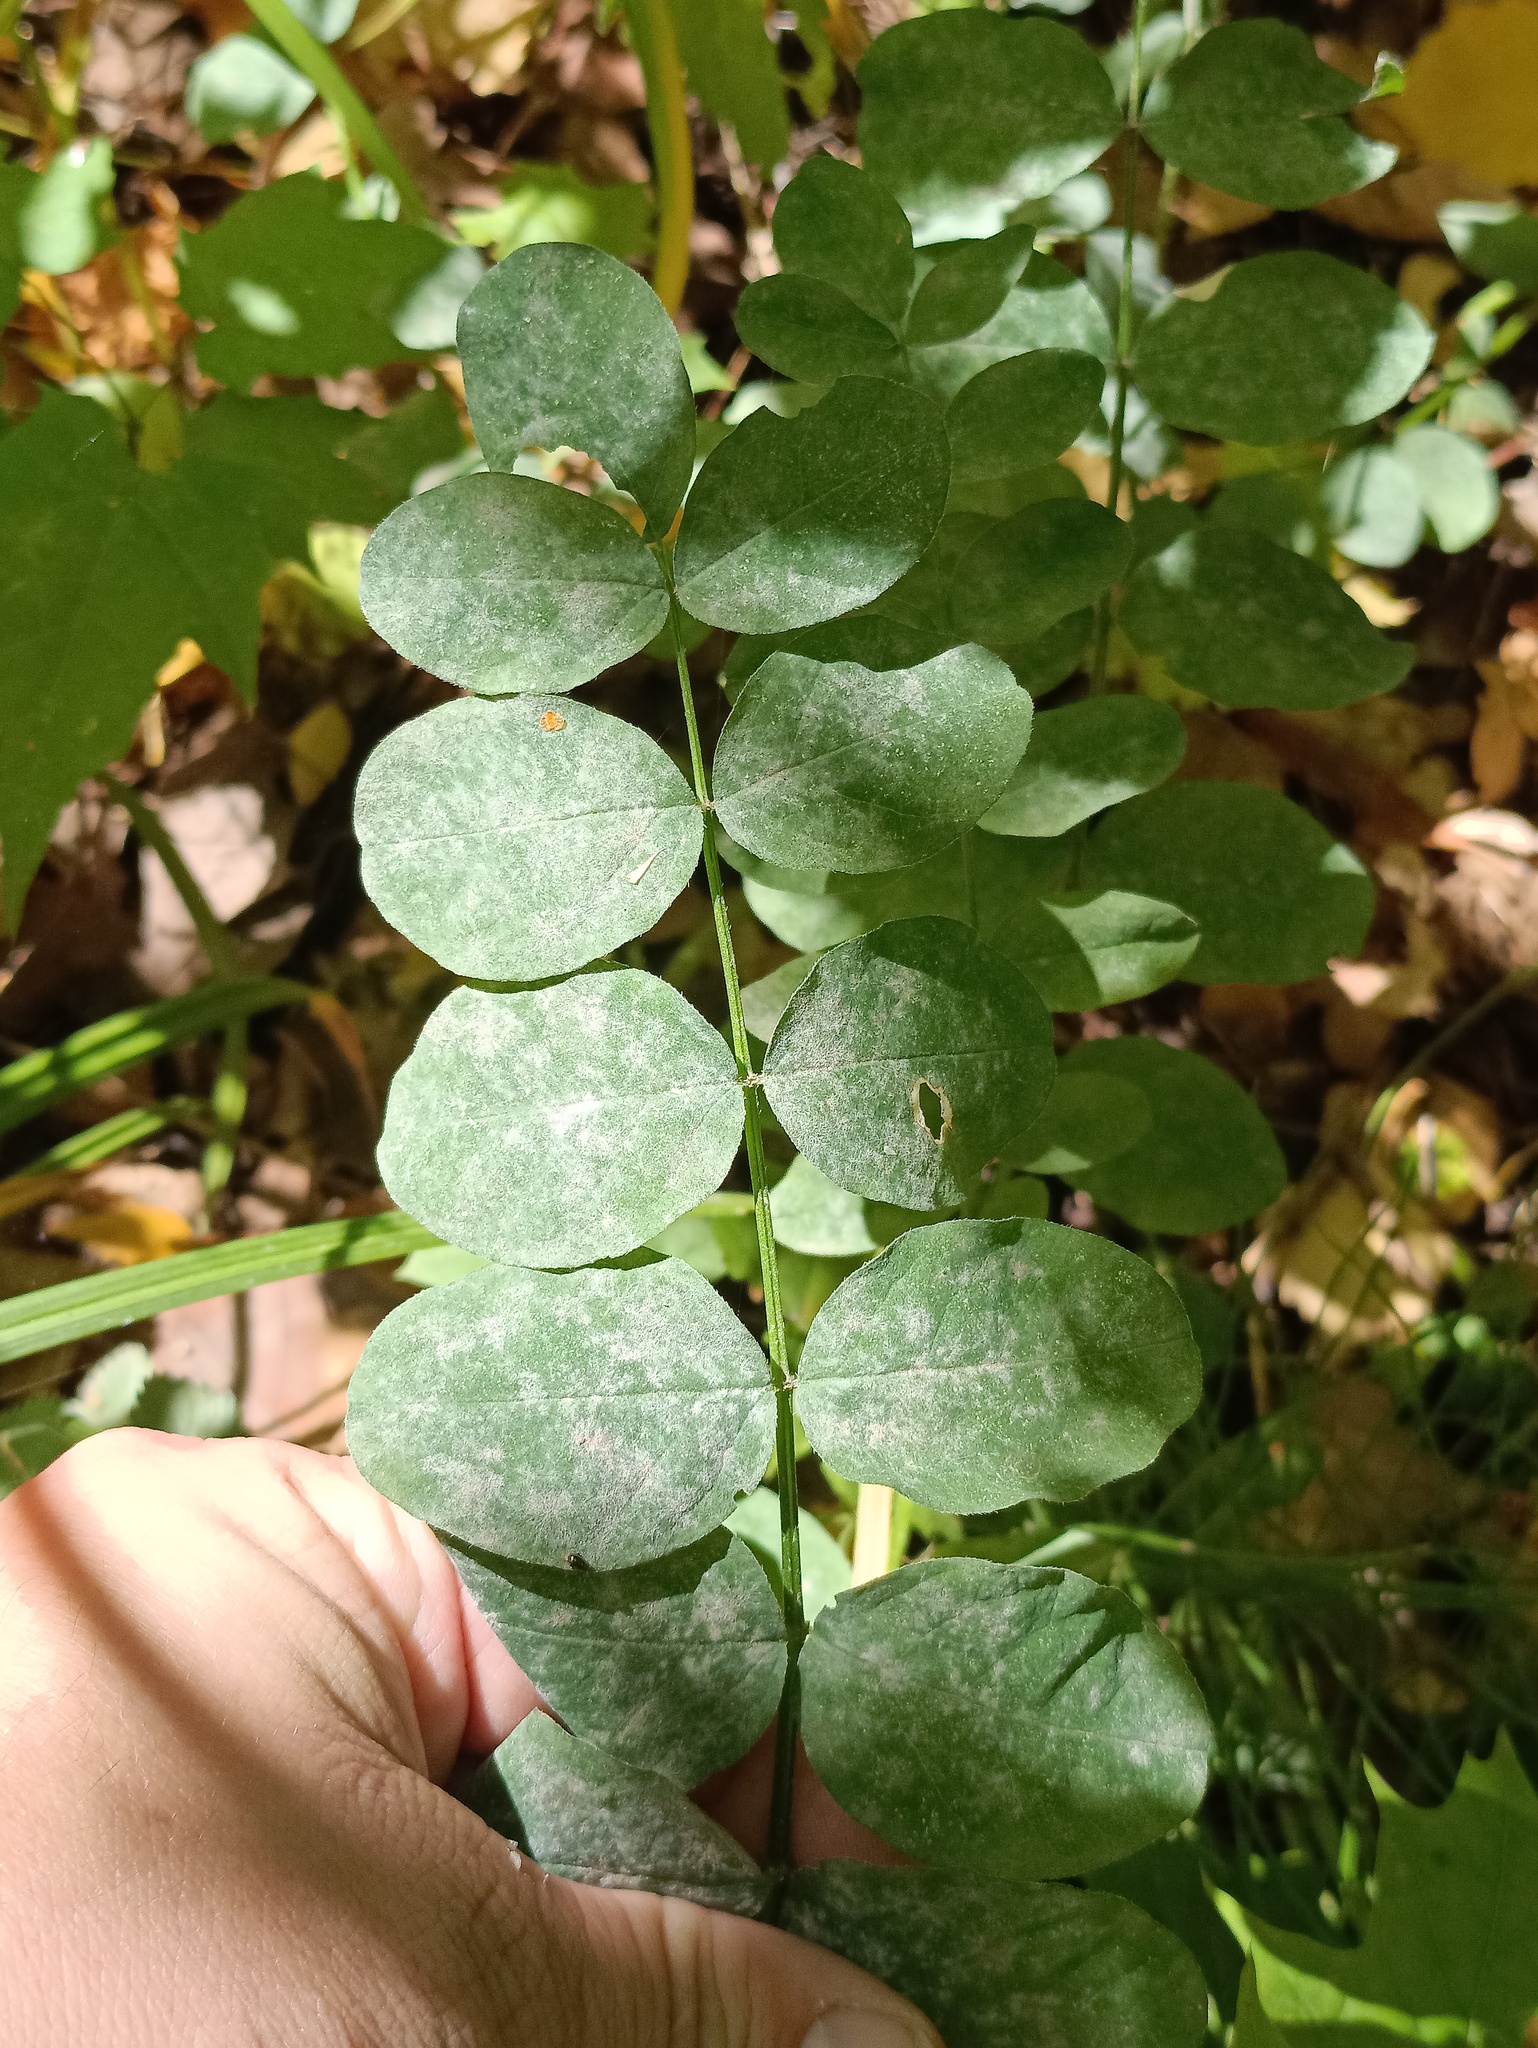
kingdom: Plantae
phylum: Tracheophyta
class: Magnoliopsida
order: Fabales
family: Fabaceae
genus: Astragalus
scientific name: Astragalus glycyphyllos
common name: Wild liquorice
